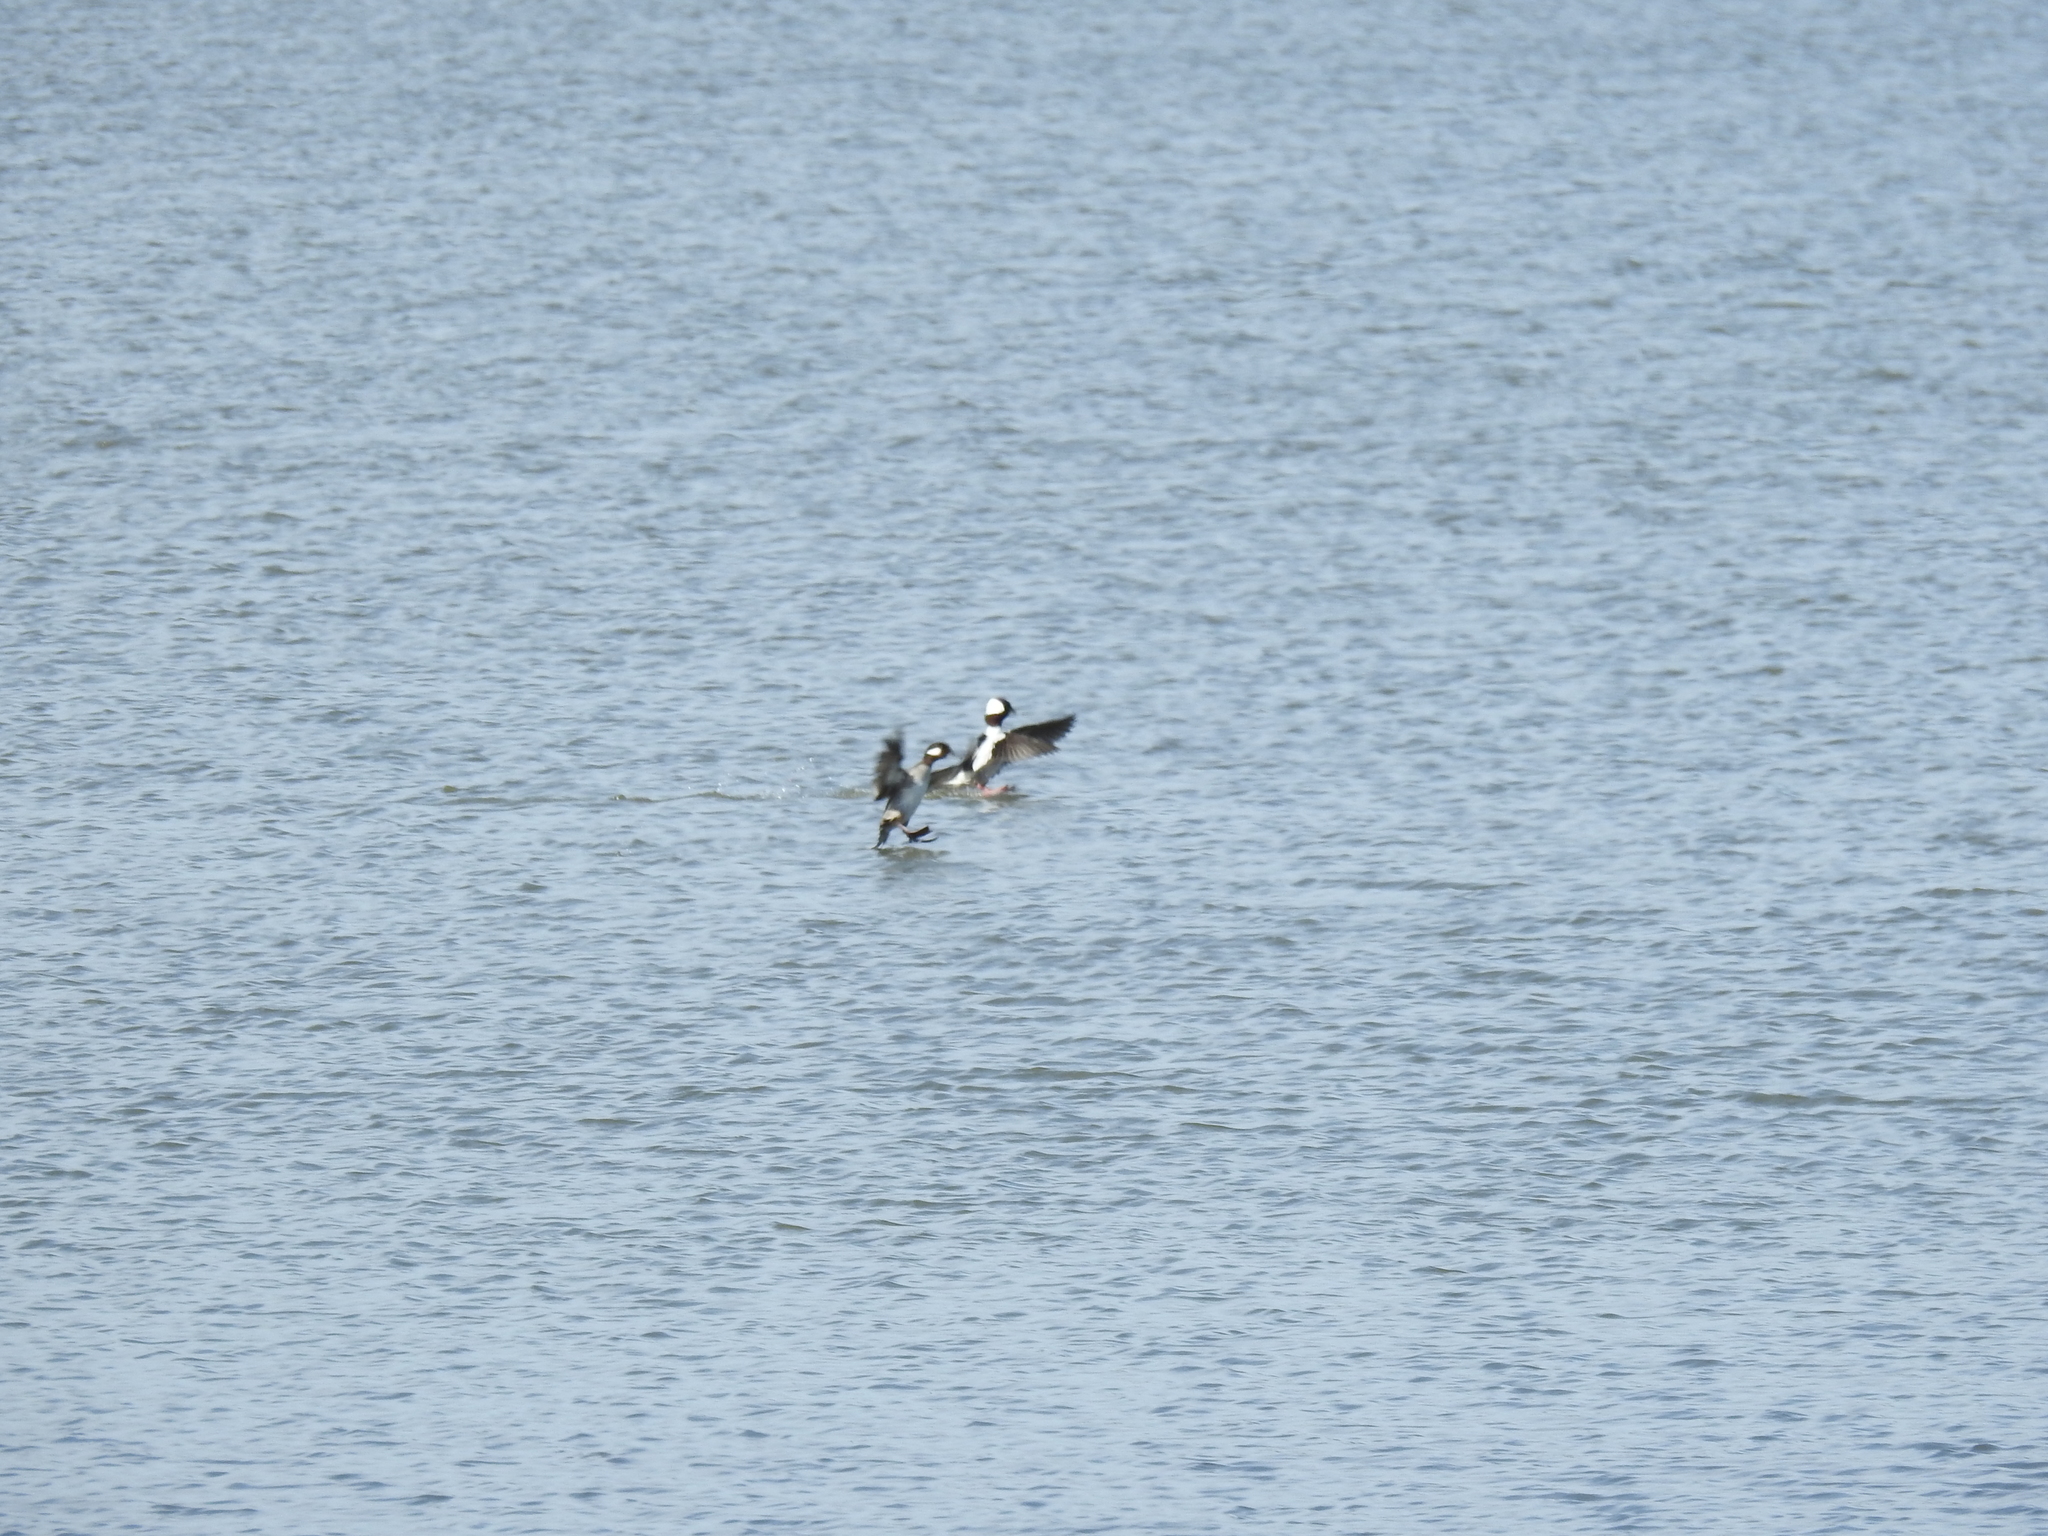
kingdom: Animalia
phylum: Chordata
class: Aves
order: Anseriformes
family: Anatidae
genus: Bucephala
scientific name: Bucephala albeola
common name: Bufflehead
